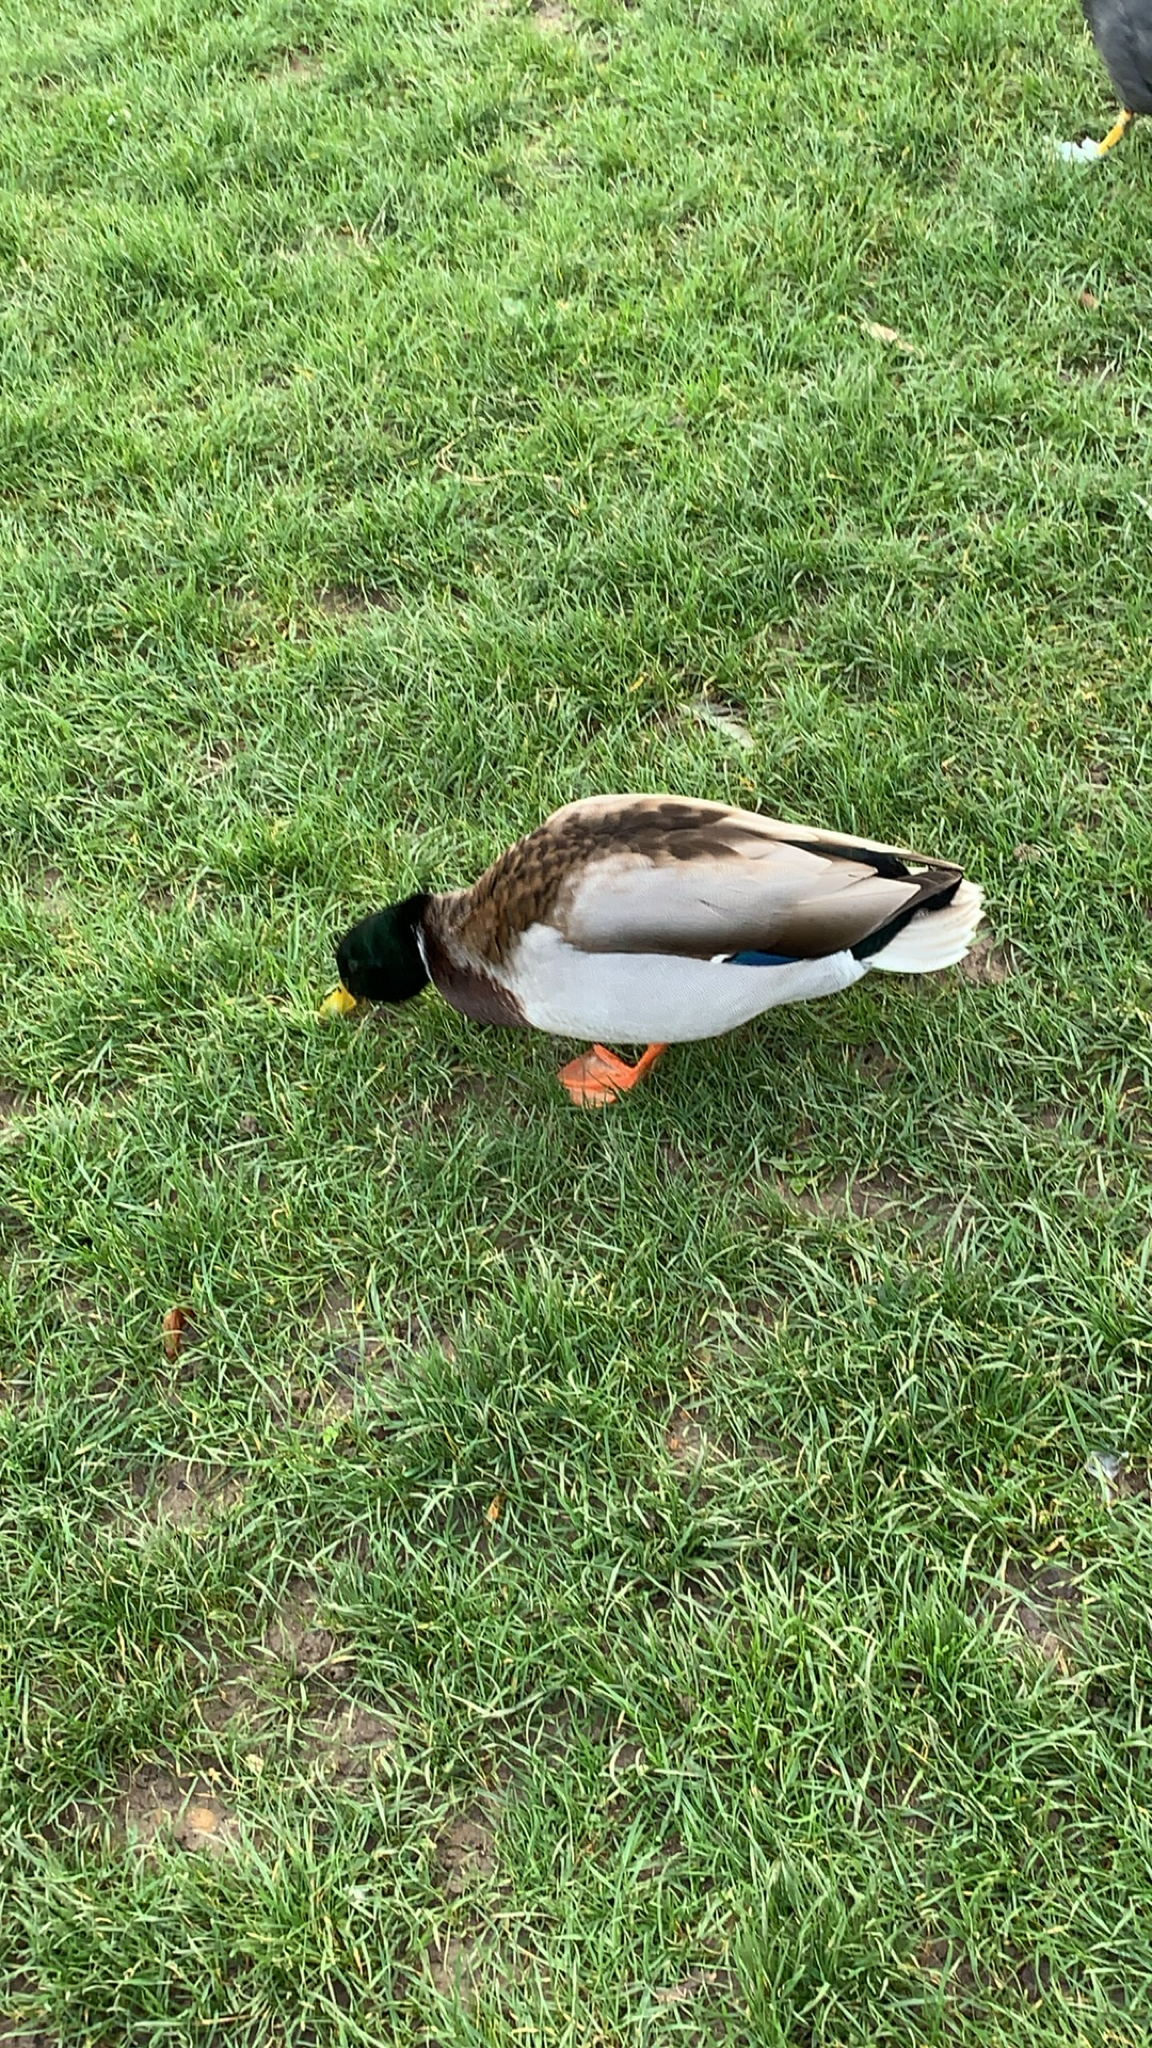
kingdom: Animalia
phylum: Chordata
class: Aves
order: Anseriformes
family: Anatidae
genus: Anas
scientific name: Anas platyrhynchos
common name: Mallard
